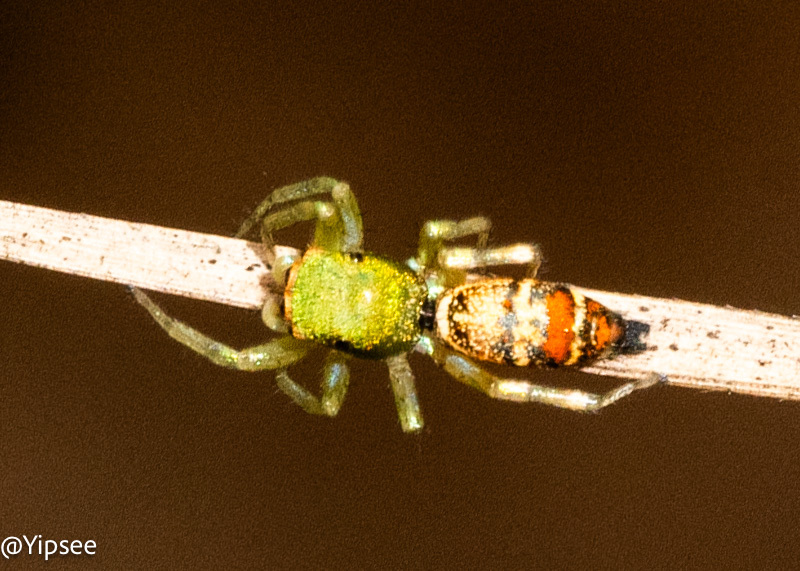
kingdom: Animalia
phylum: Arthropoda
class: Arachnida
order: Araneae
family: Salticidae
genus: Cosmophasis
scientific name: Cosmophasis thalassina
